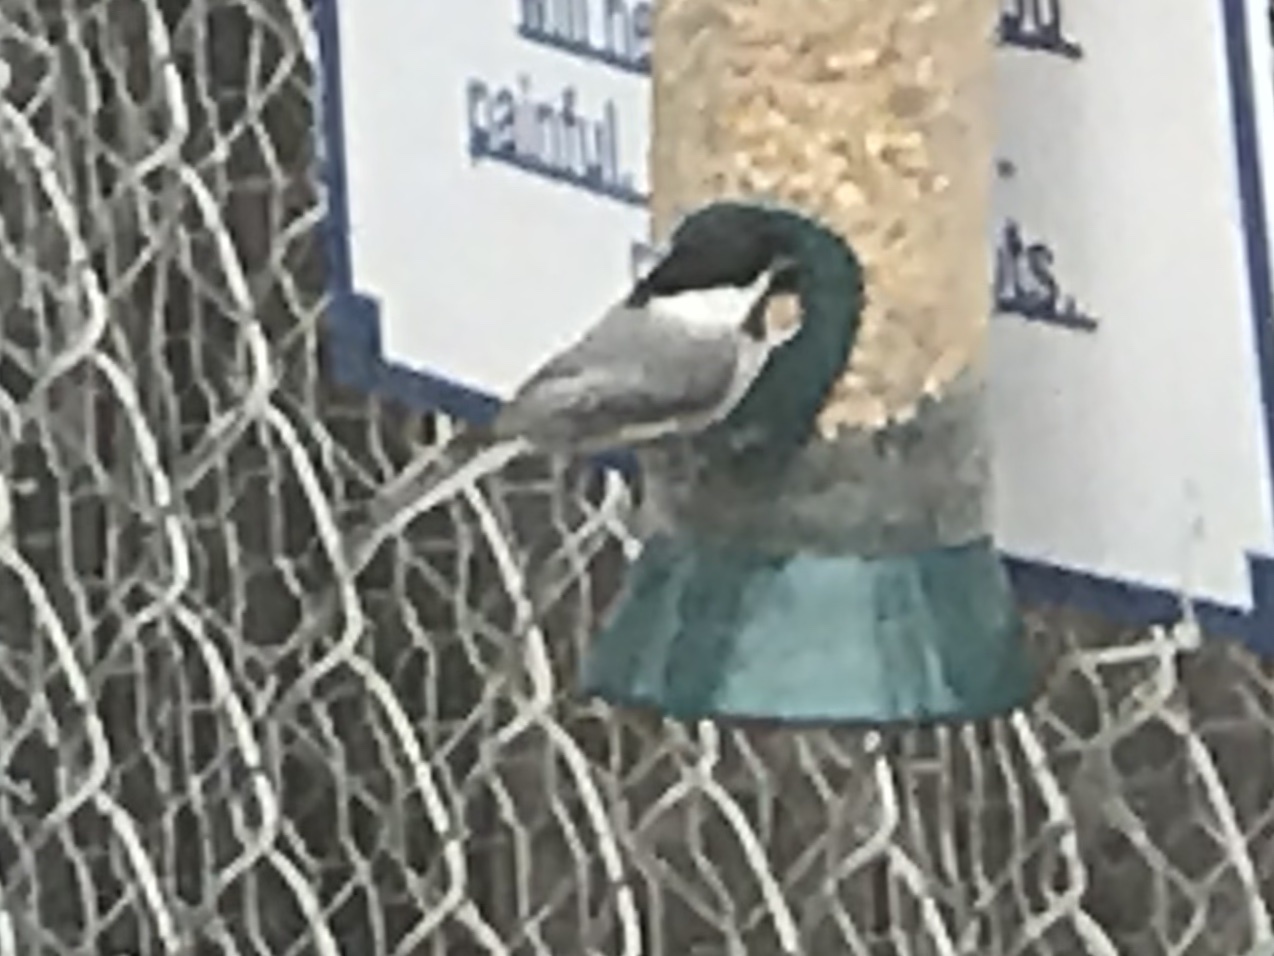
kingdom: Animalia
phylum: Chordata
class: Aves
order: Passeriformes
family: Paridae
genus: Poecile
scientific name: Poecile carolinensis
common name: Carolina chickadee
